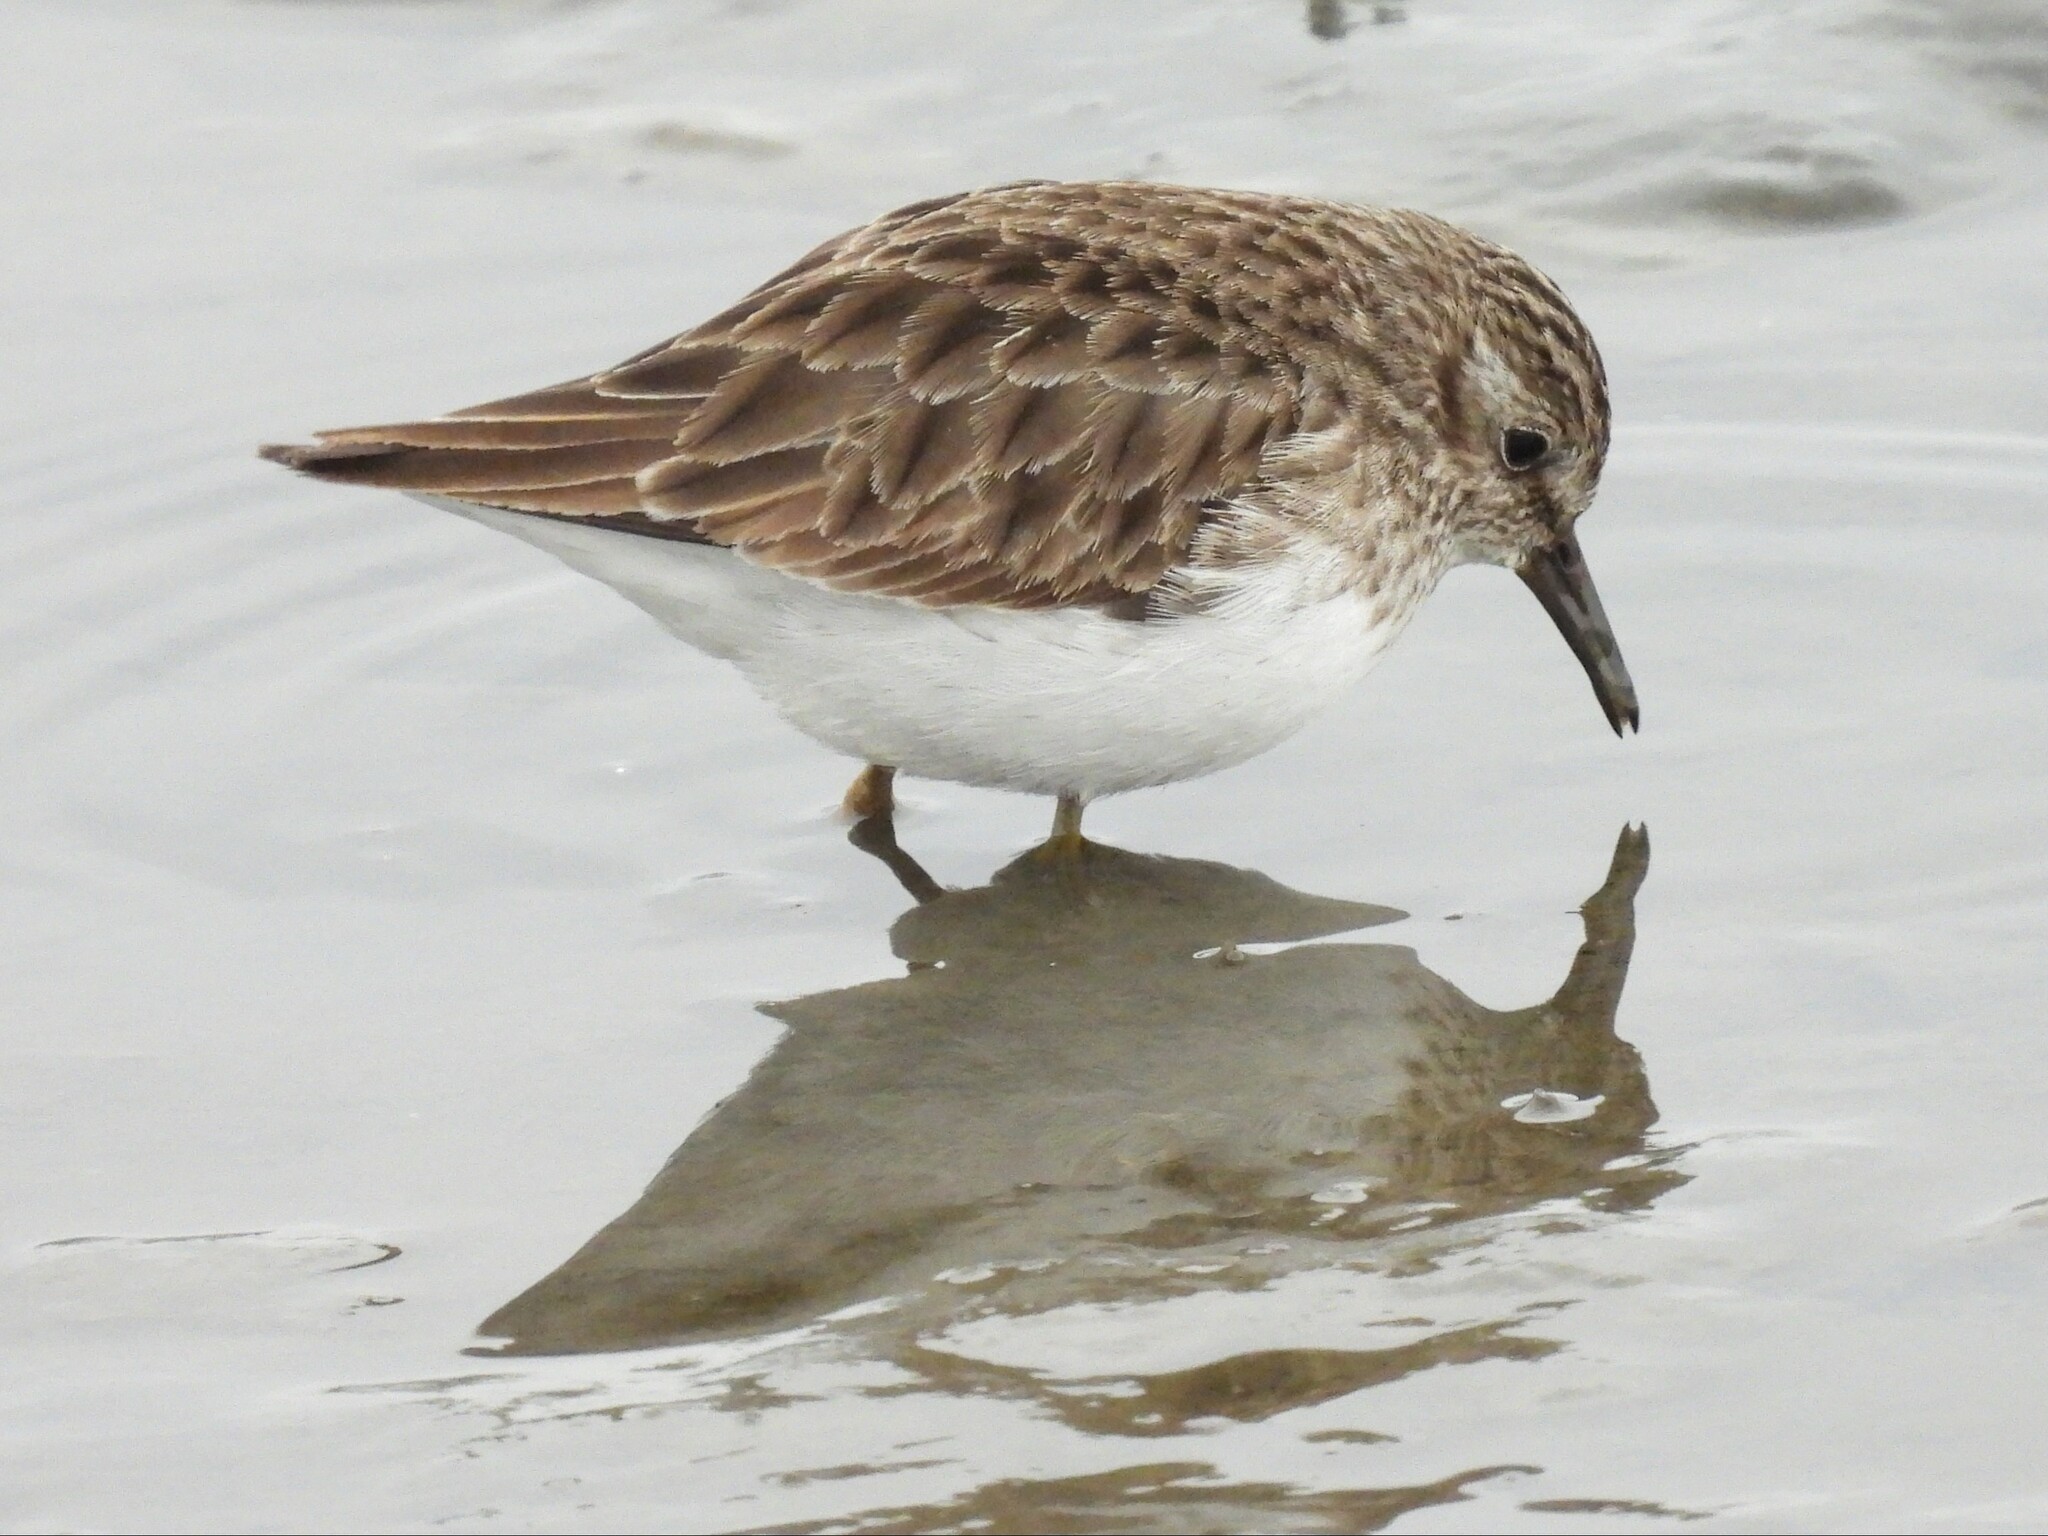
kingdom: Animalia
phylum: Chordata
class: Aves
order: Charadriiformes
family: Scolopacidae
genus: Calidris
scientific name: Calidris minutilla
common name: Least sandpiper
